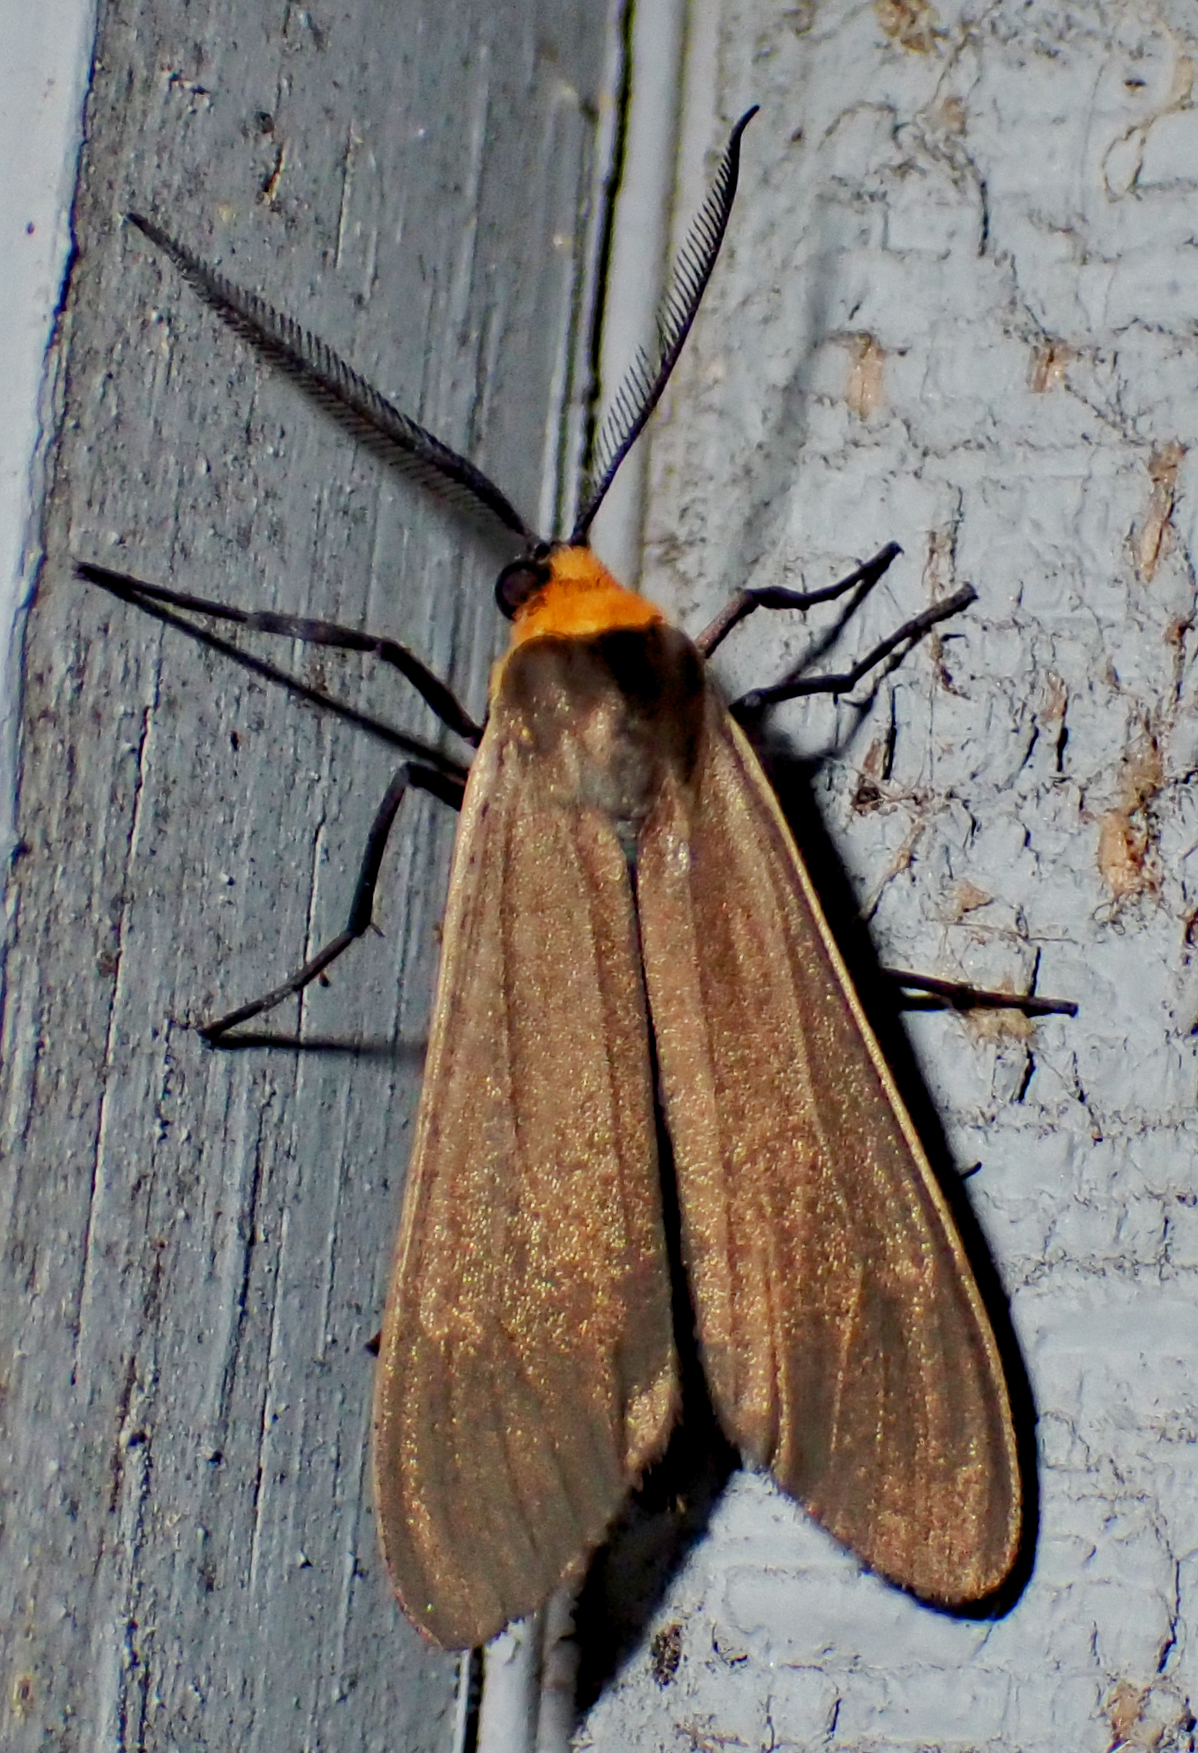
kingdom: Animalia
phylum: Arthropoda
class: Insecta
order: Lepidoptera
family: Erebidae
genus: Cisseps
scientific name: Cisseps fulvicollis
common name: Yellow-collared scape moth
